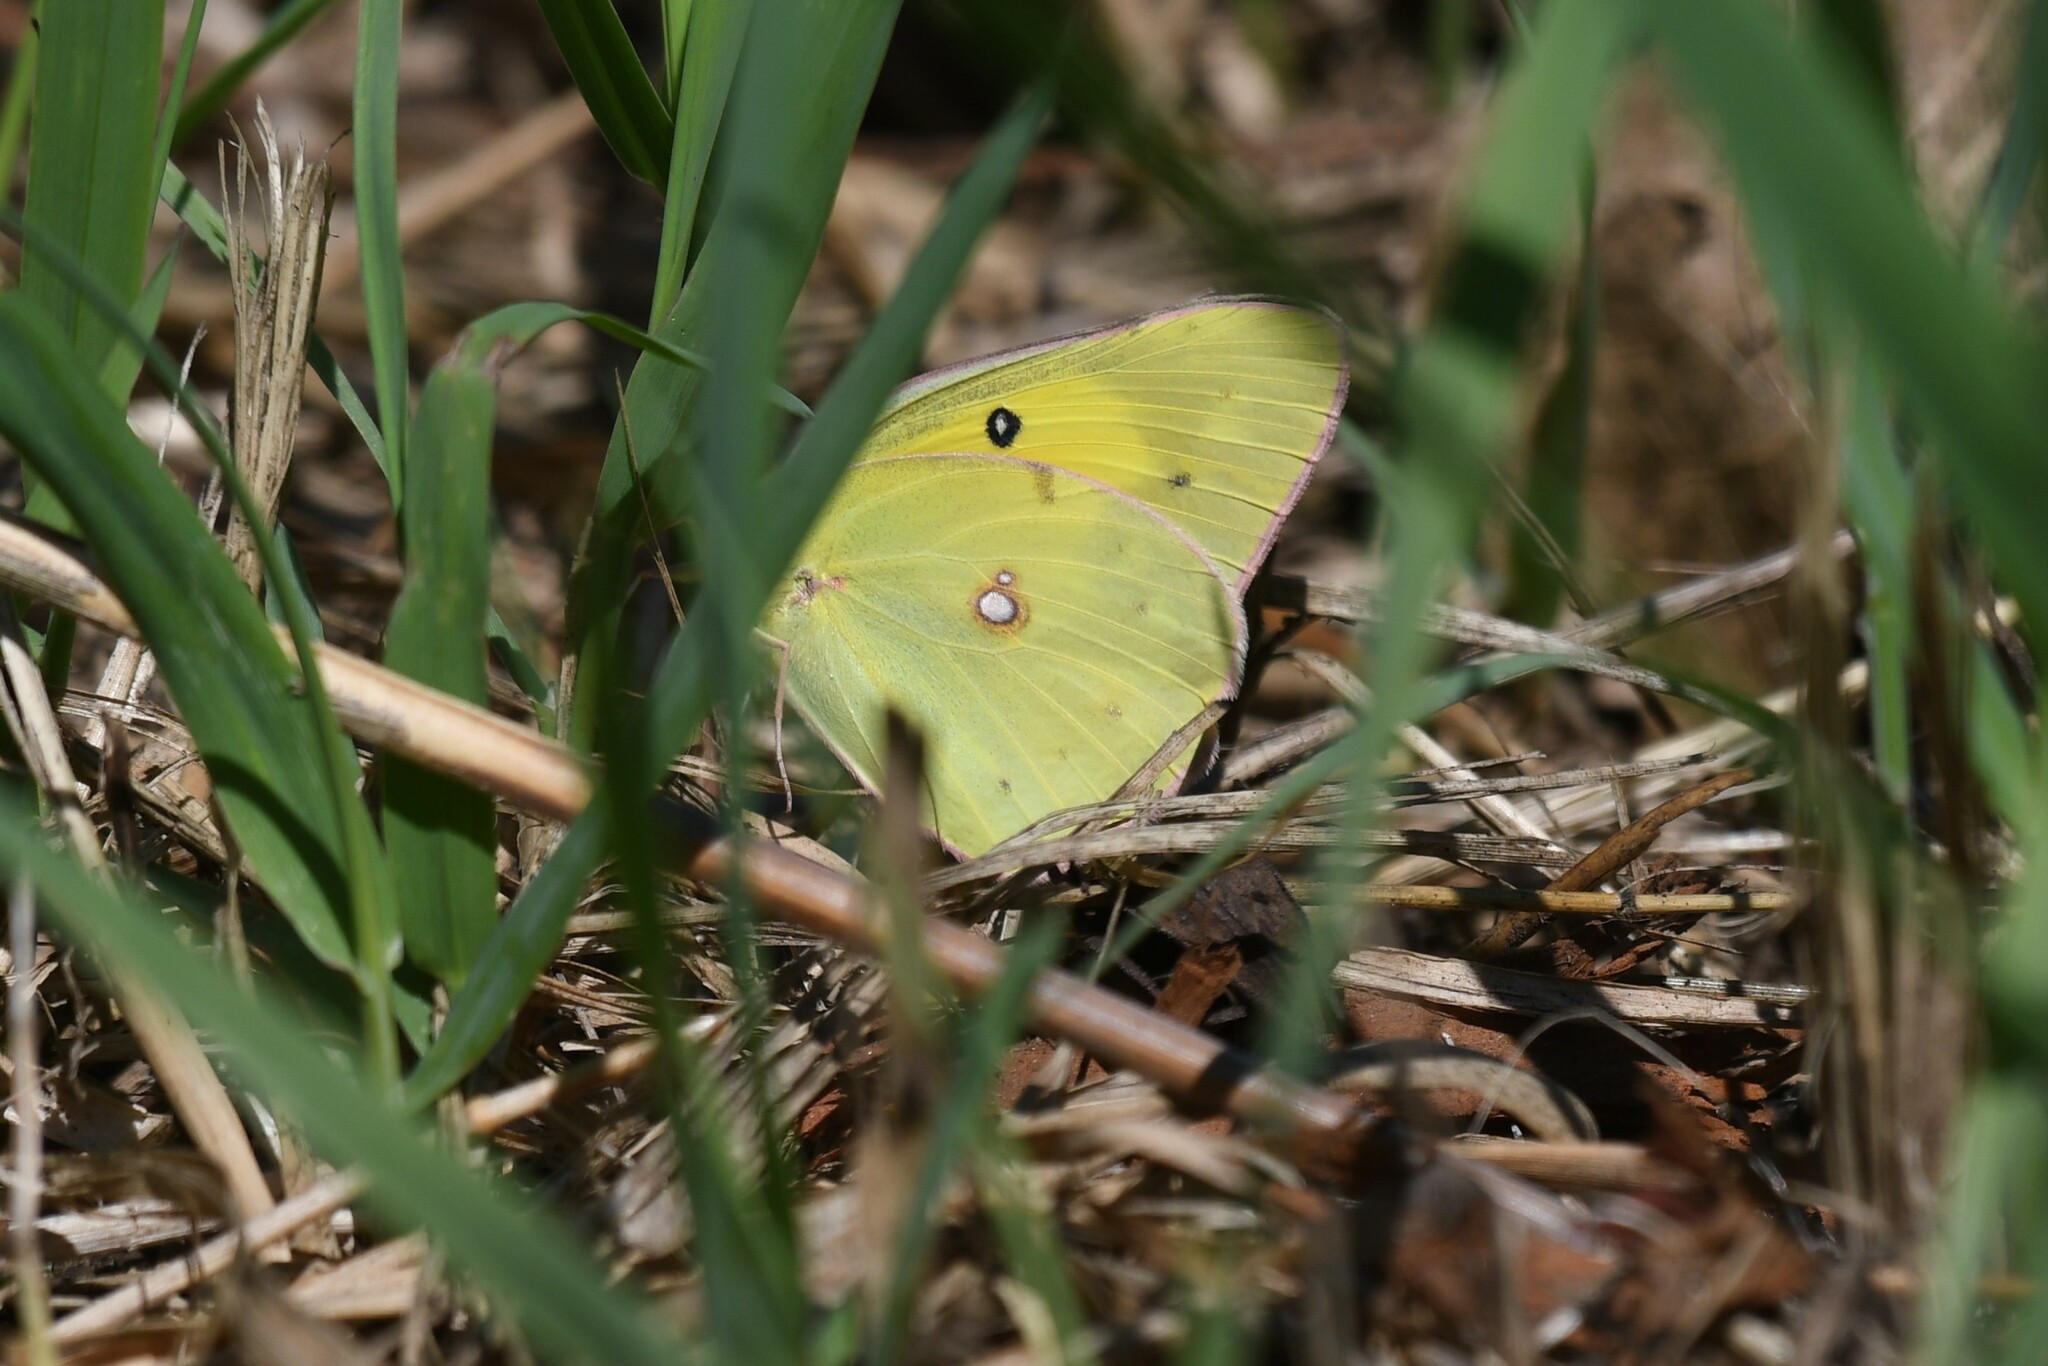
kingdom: Animalia
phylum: Arthropoda
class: Insecta
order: Lepidoptera
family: Pieridae
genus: Colias
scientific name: Colias philodice
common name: Clouded sulphur
